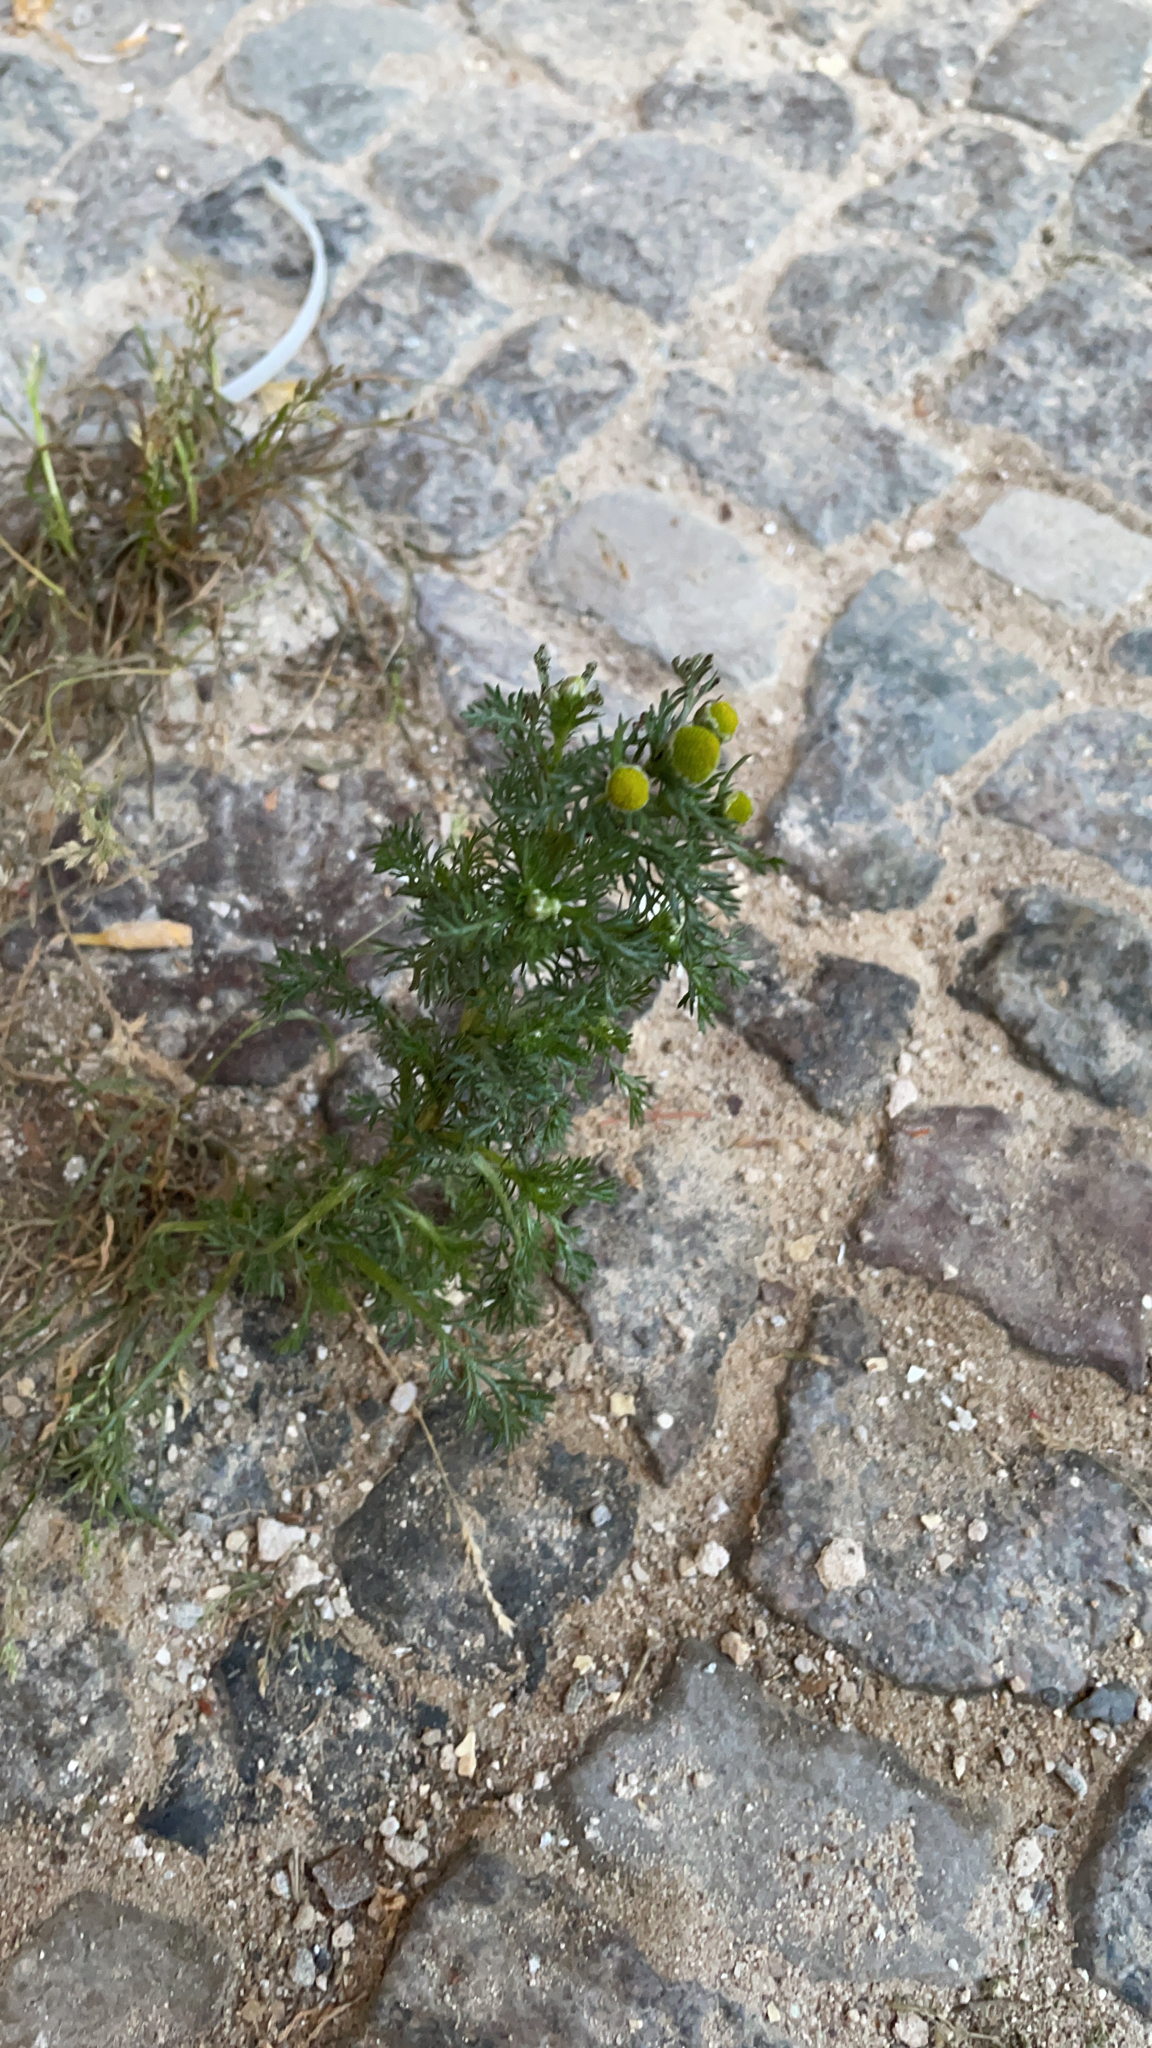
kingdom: Plantae
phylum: Tracheophyta
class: Magnoliopsida
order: Asterales
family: Asteraceae
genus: Matricaria
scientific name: Matricaria discoidea
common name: Disc mayweed
